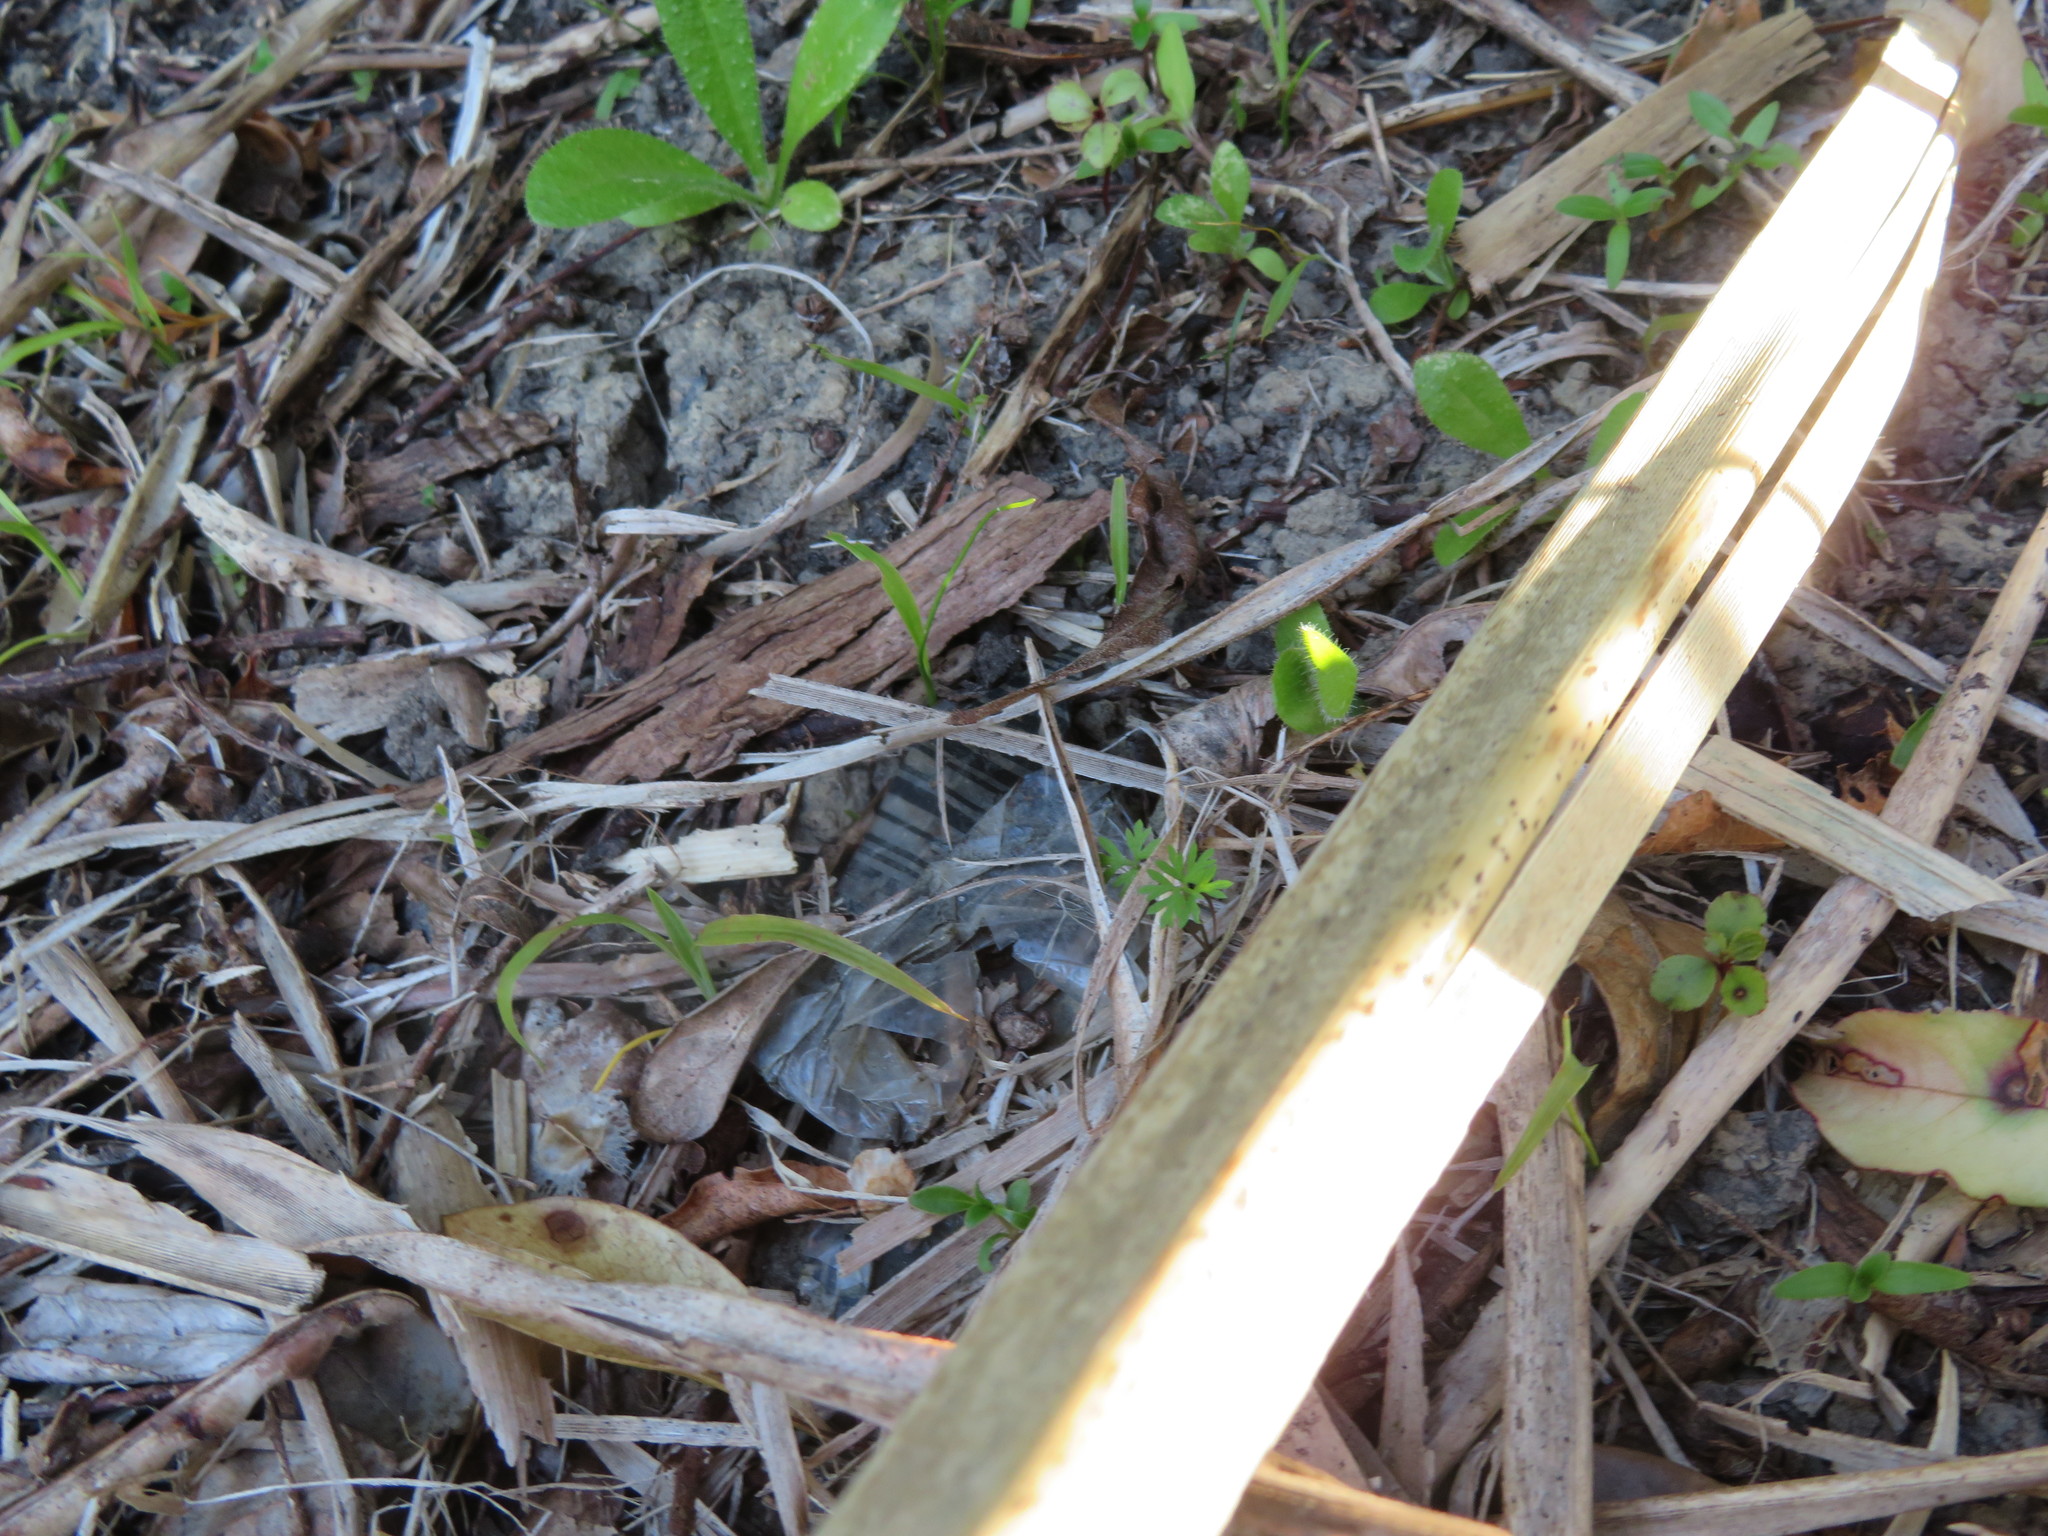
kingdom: Plantae
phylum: Tracheophyta
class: Liliopsida
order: Asparagales
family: Asparagaceae
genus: Cordyline
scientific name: Cordyline australis
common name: Cabbage-palm
